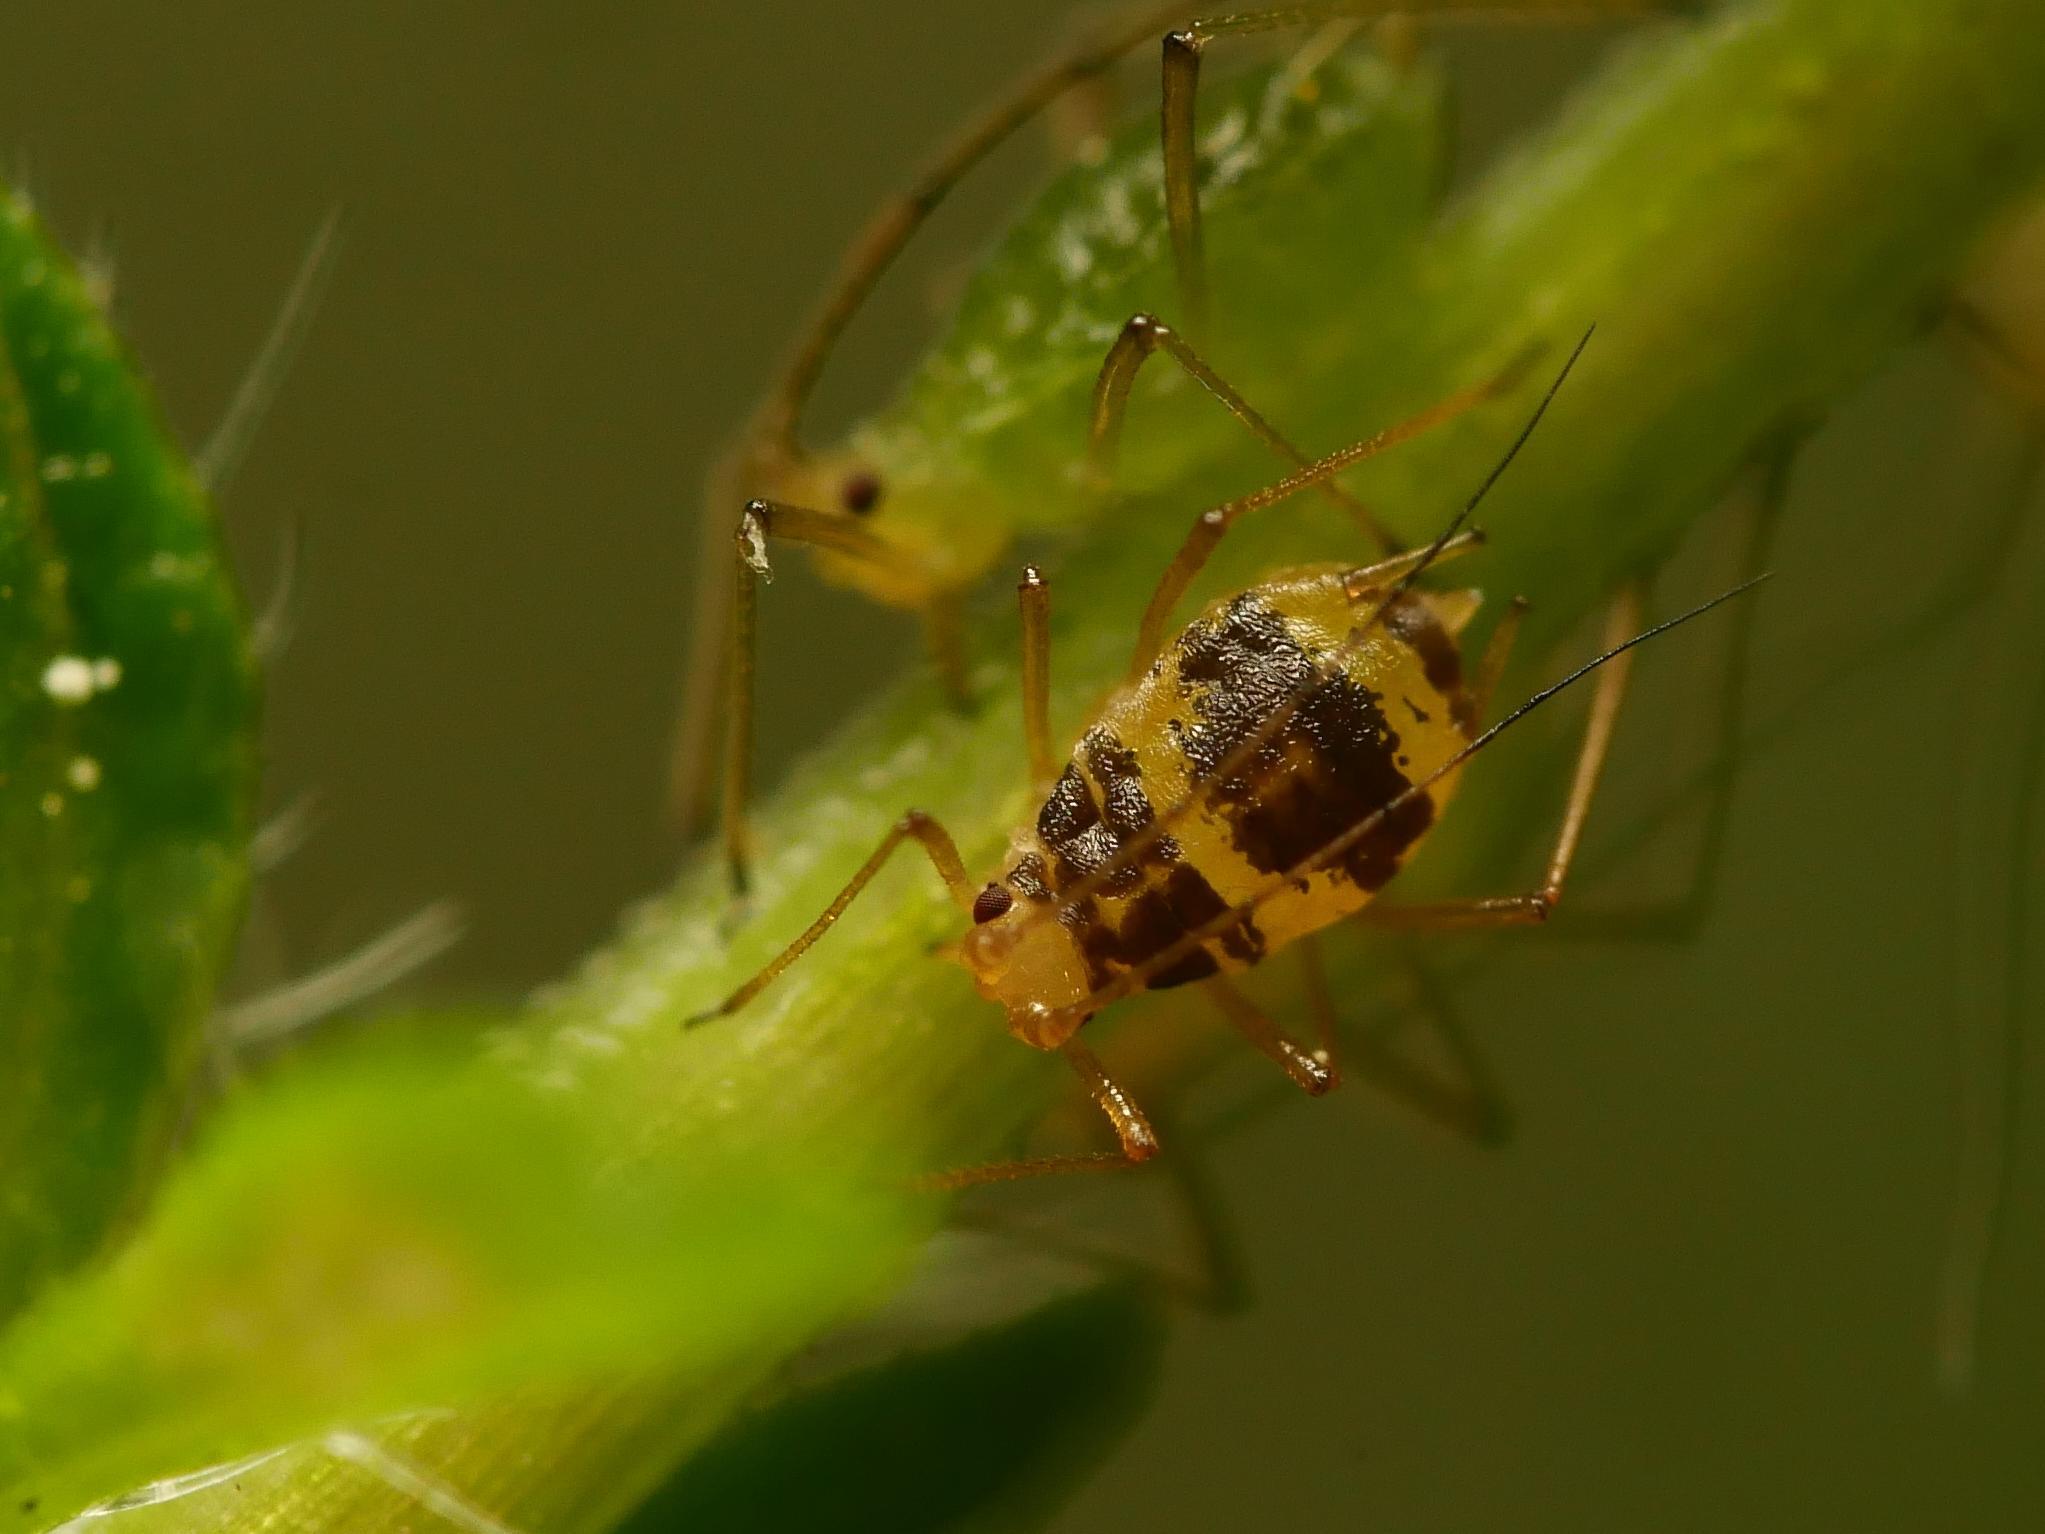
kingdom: Animalia
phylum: Arthropoda
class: Insecta
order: Hemiptera
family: Aphididae
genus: Neomyzus
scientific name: Neomyzus circumflexus
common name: Crescentmarked lily aphid
